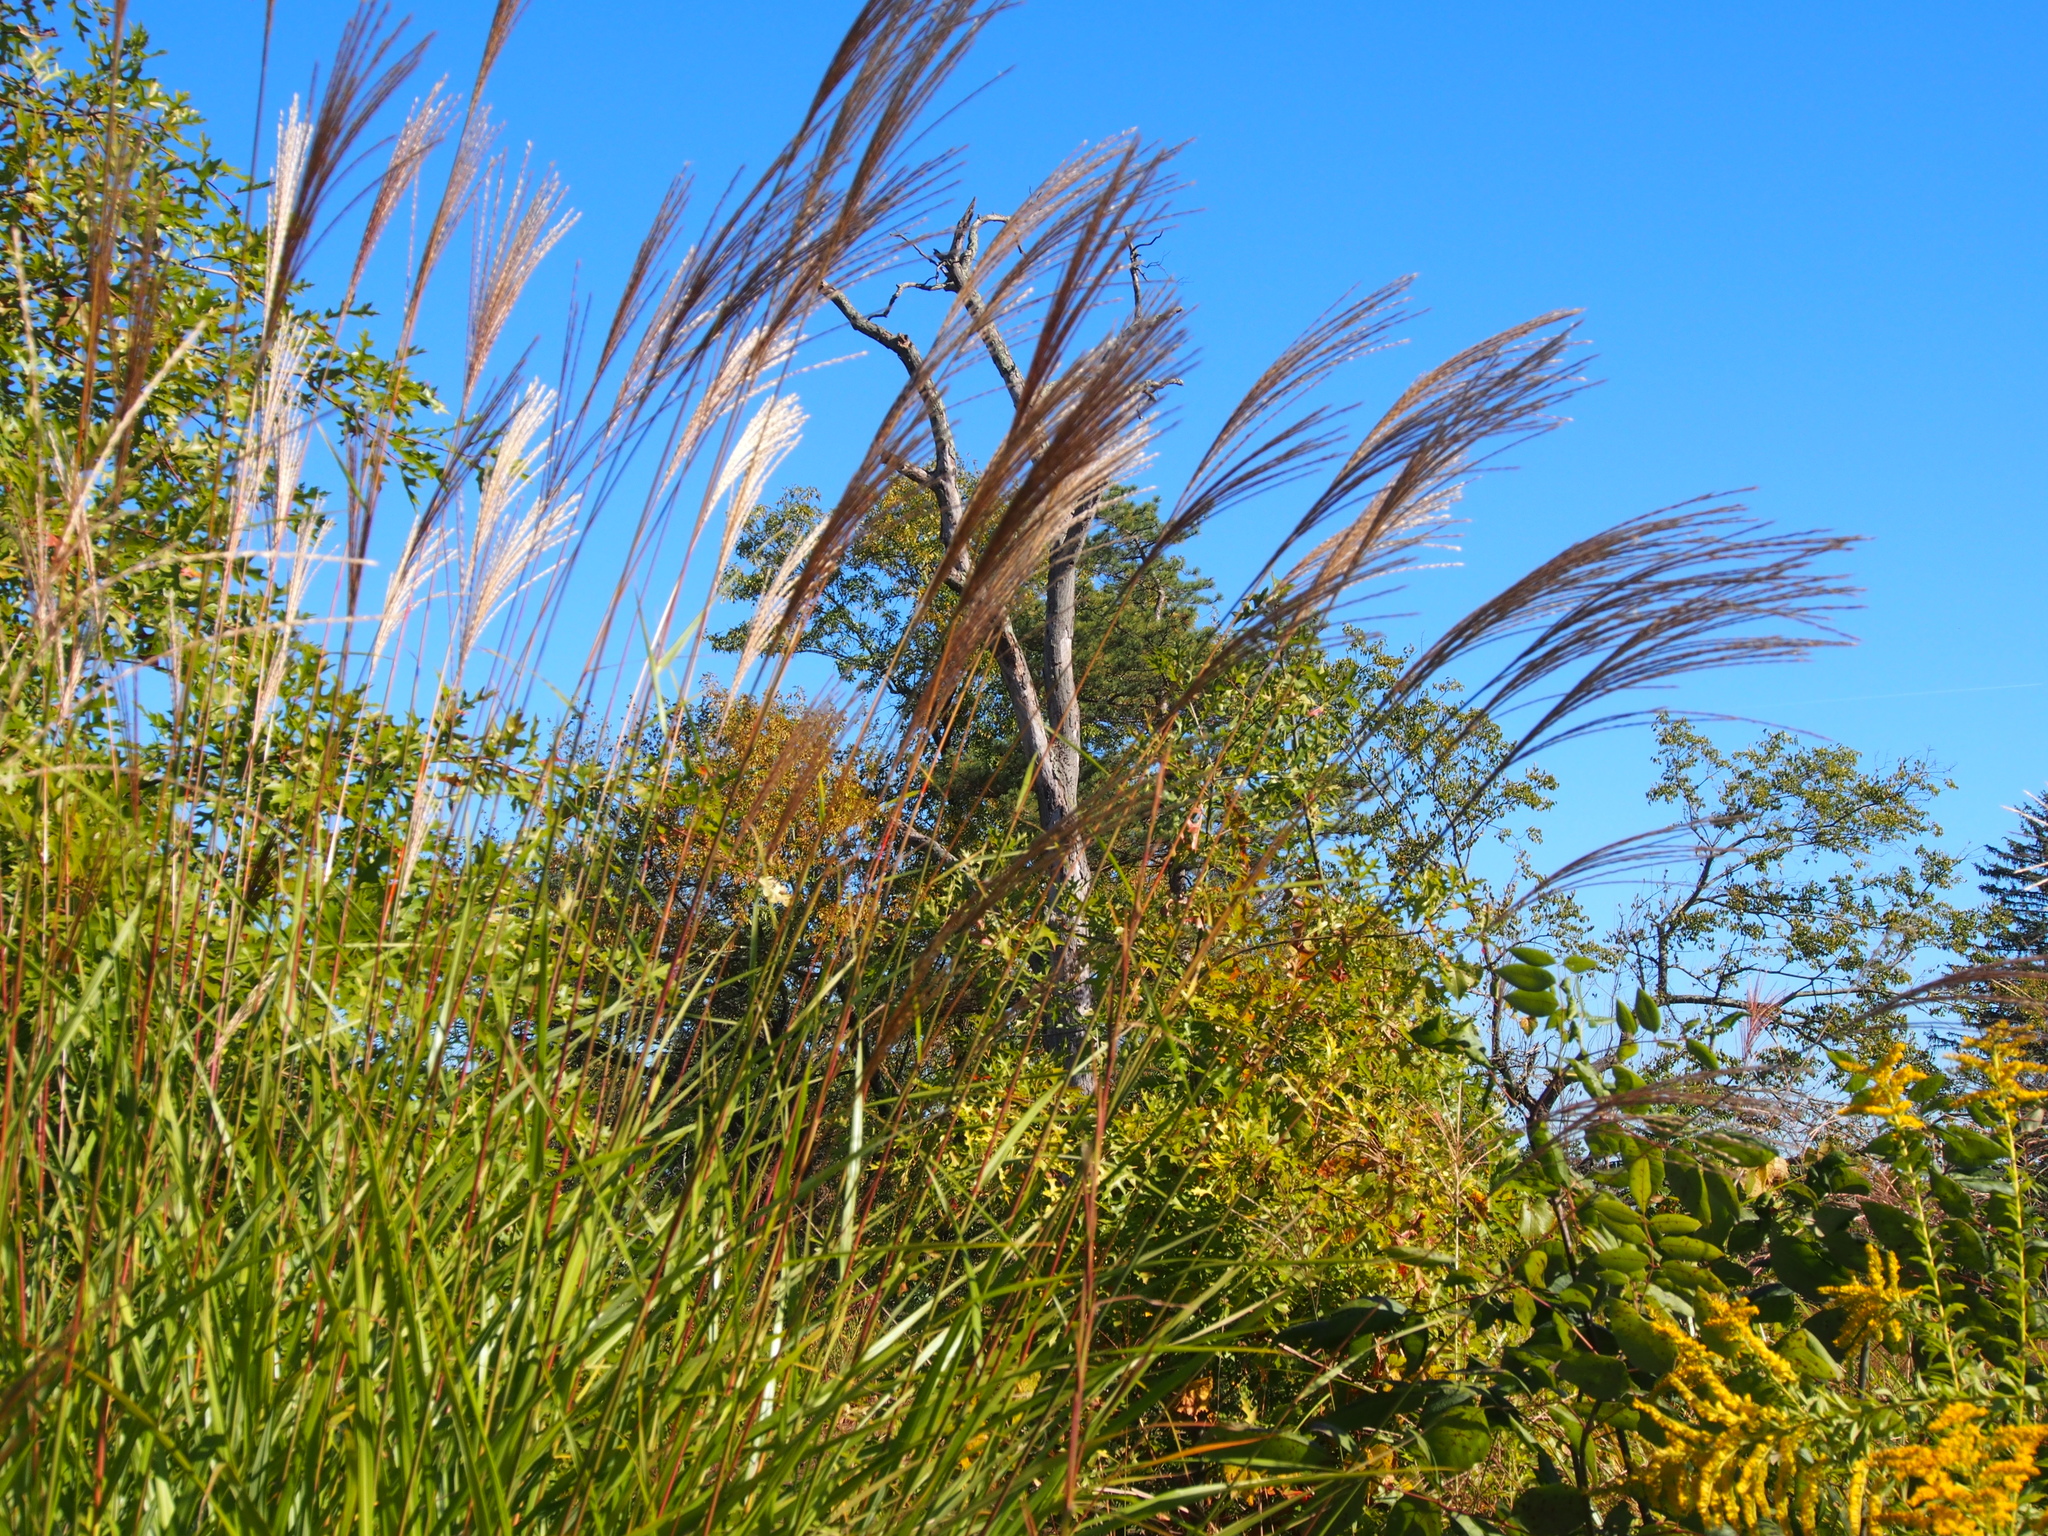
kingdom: Plantae
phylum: Tracheophyta
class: Liliopsida
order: Poales
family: Poaceae
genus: Miscanthus
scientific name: Miscanthus sinensis
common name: Chinese silvergrass
